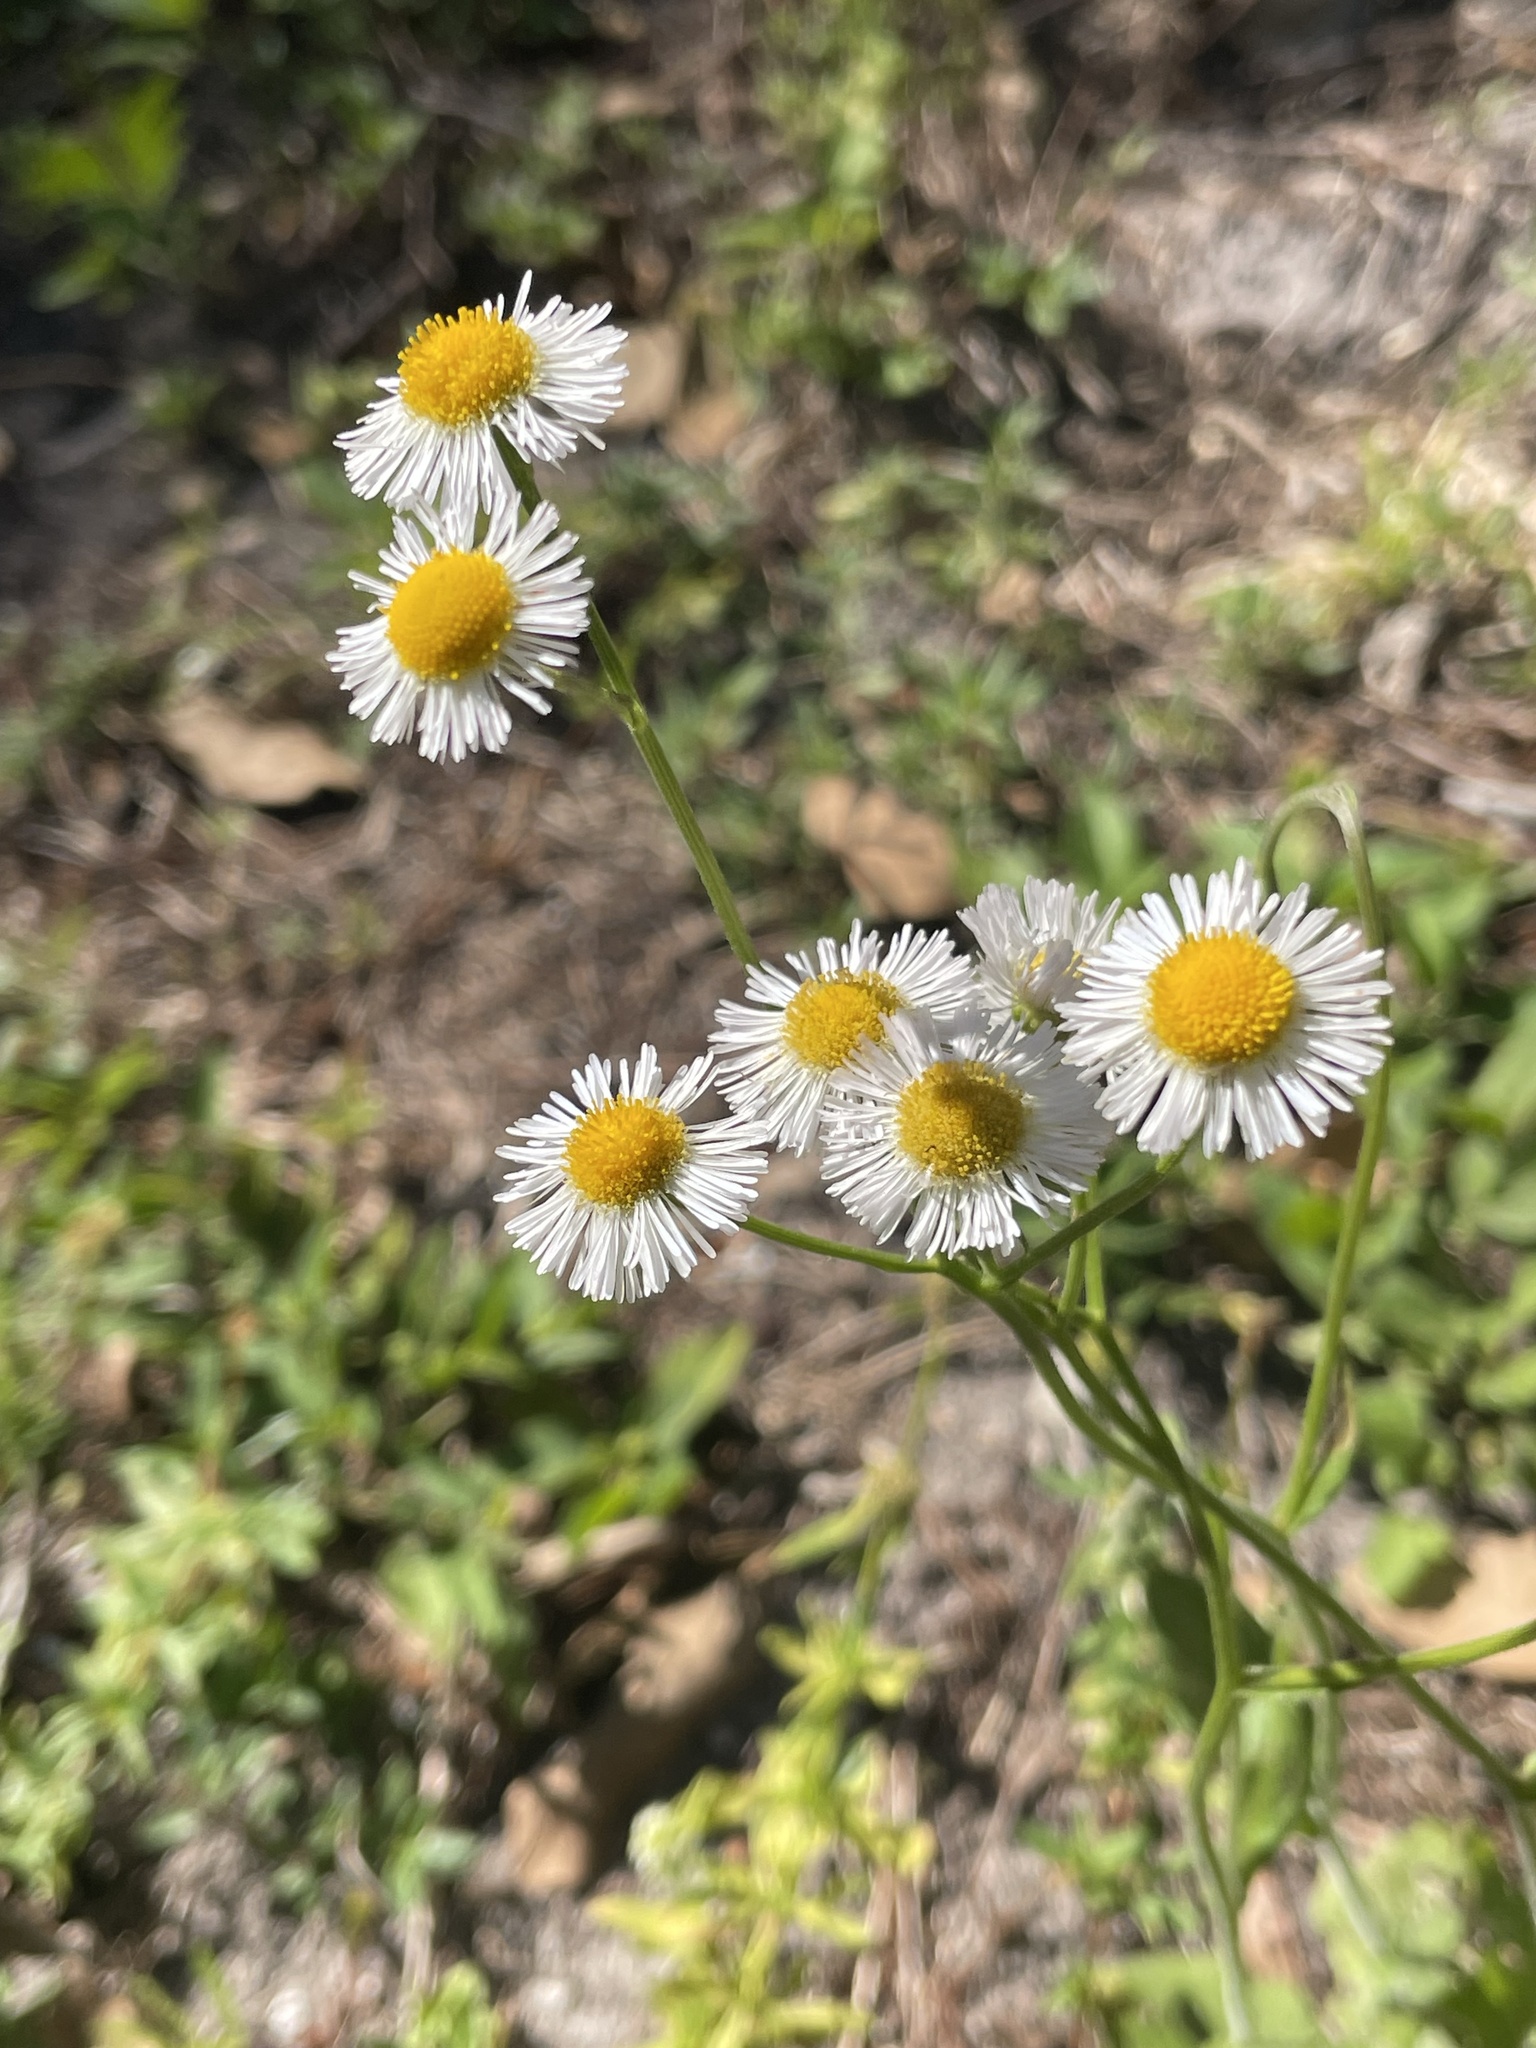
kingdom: Plantae
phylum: Tracheophyta
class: Magnoliopsida
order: Asterales
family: Asteraceae
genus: Erigeron
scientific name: Erigeron quercifolius
